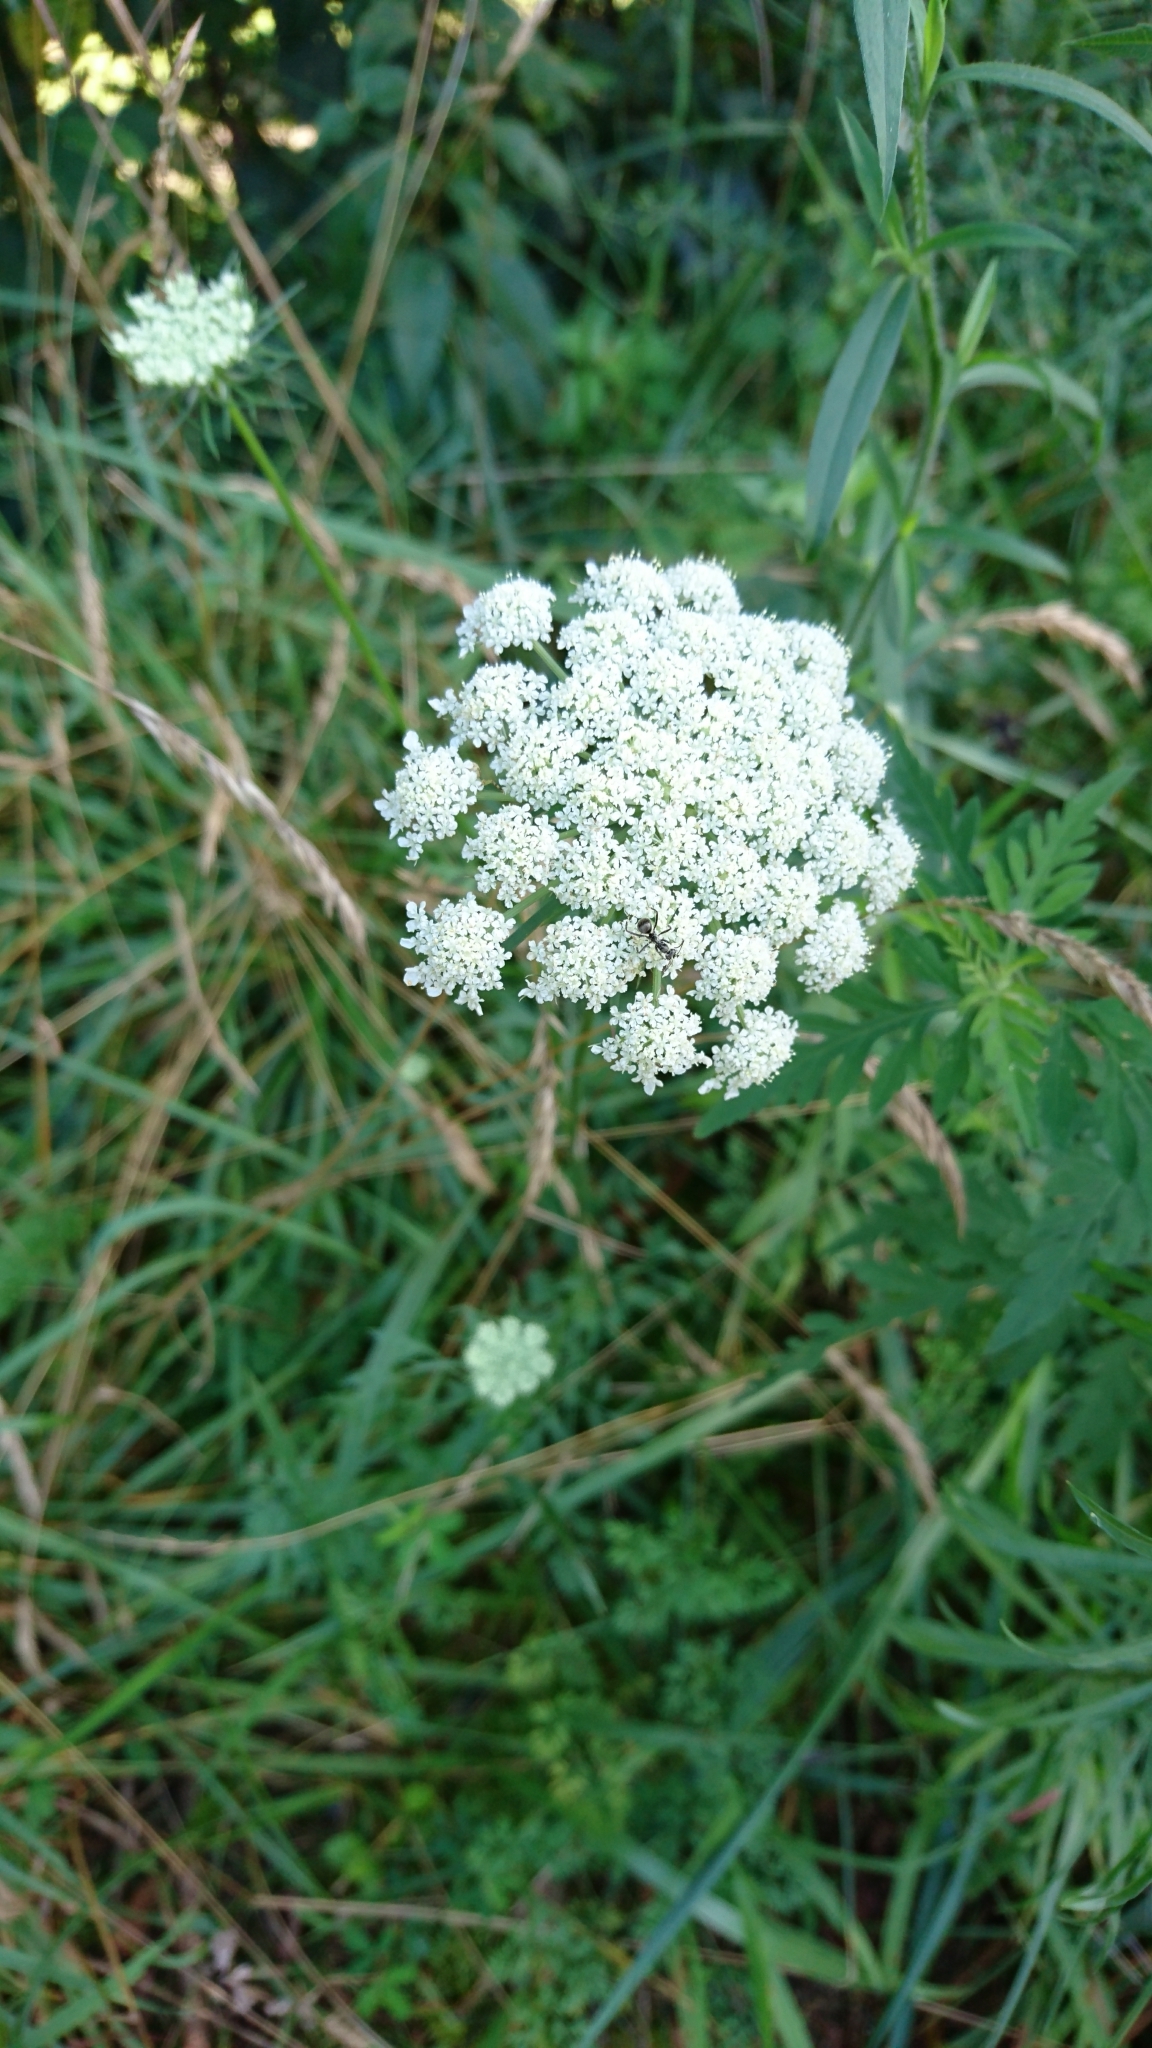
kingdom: Plantae
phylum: Tracheophyta
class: Magnoliopsida
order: Apiales
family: Apiaceae
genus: Daucus
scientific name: Daucus carota
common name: Wild carrot
